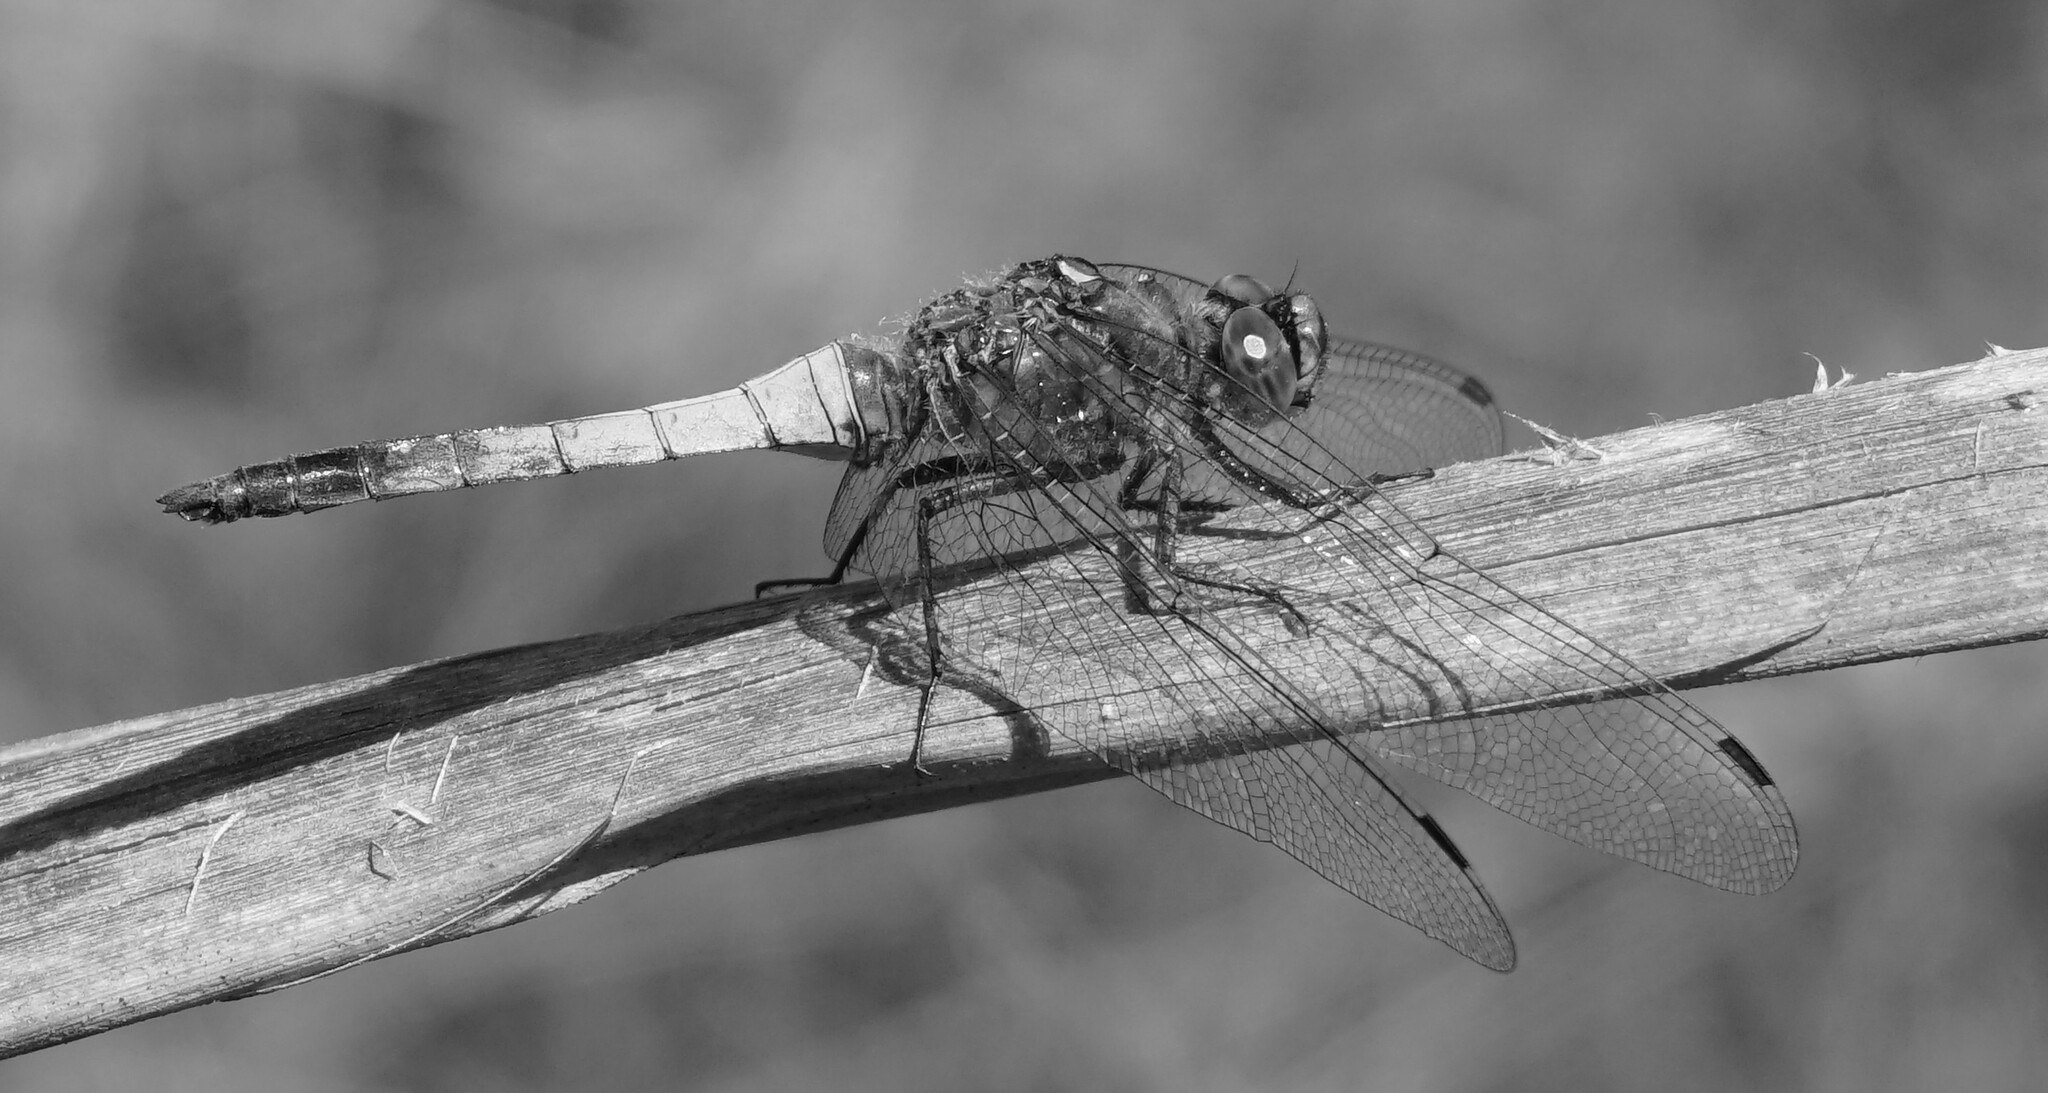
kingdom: Animalia
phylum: Arthropoda
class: Insecta
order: Odonata
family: Libellulidae
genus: Orthetrum
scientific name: Orthetrum cancellatum
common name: Black-tailed skimmer
